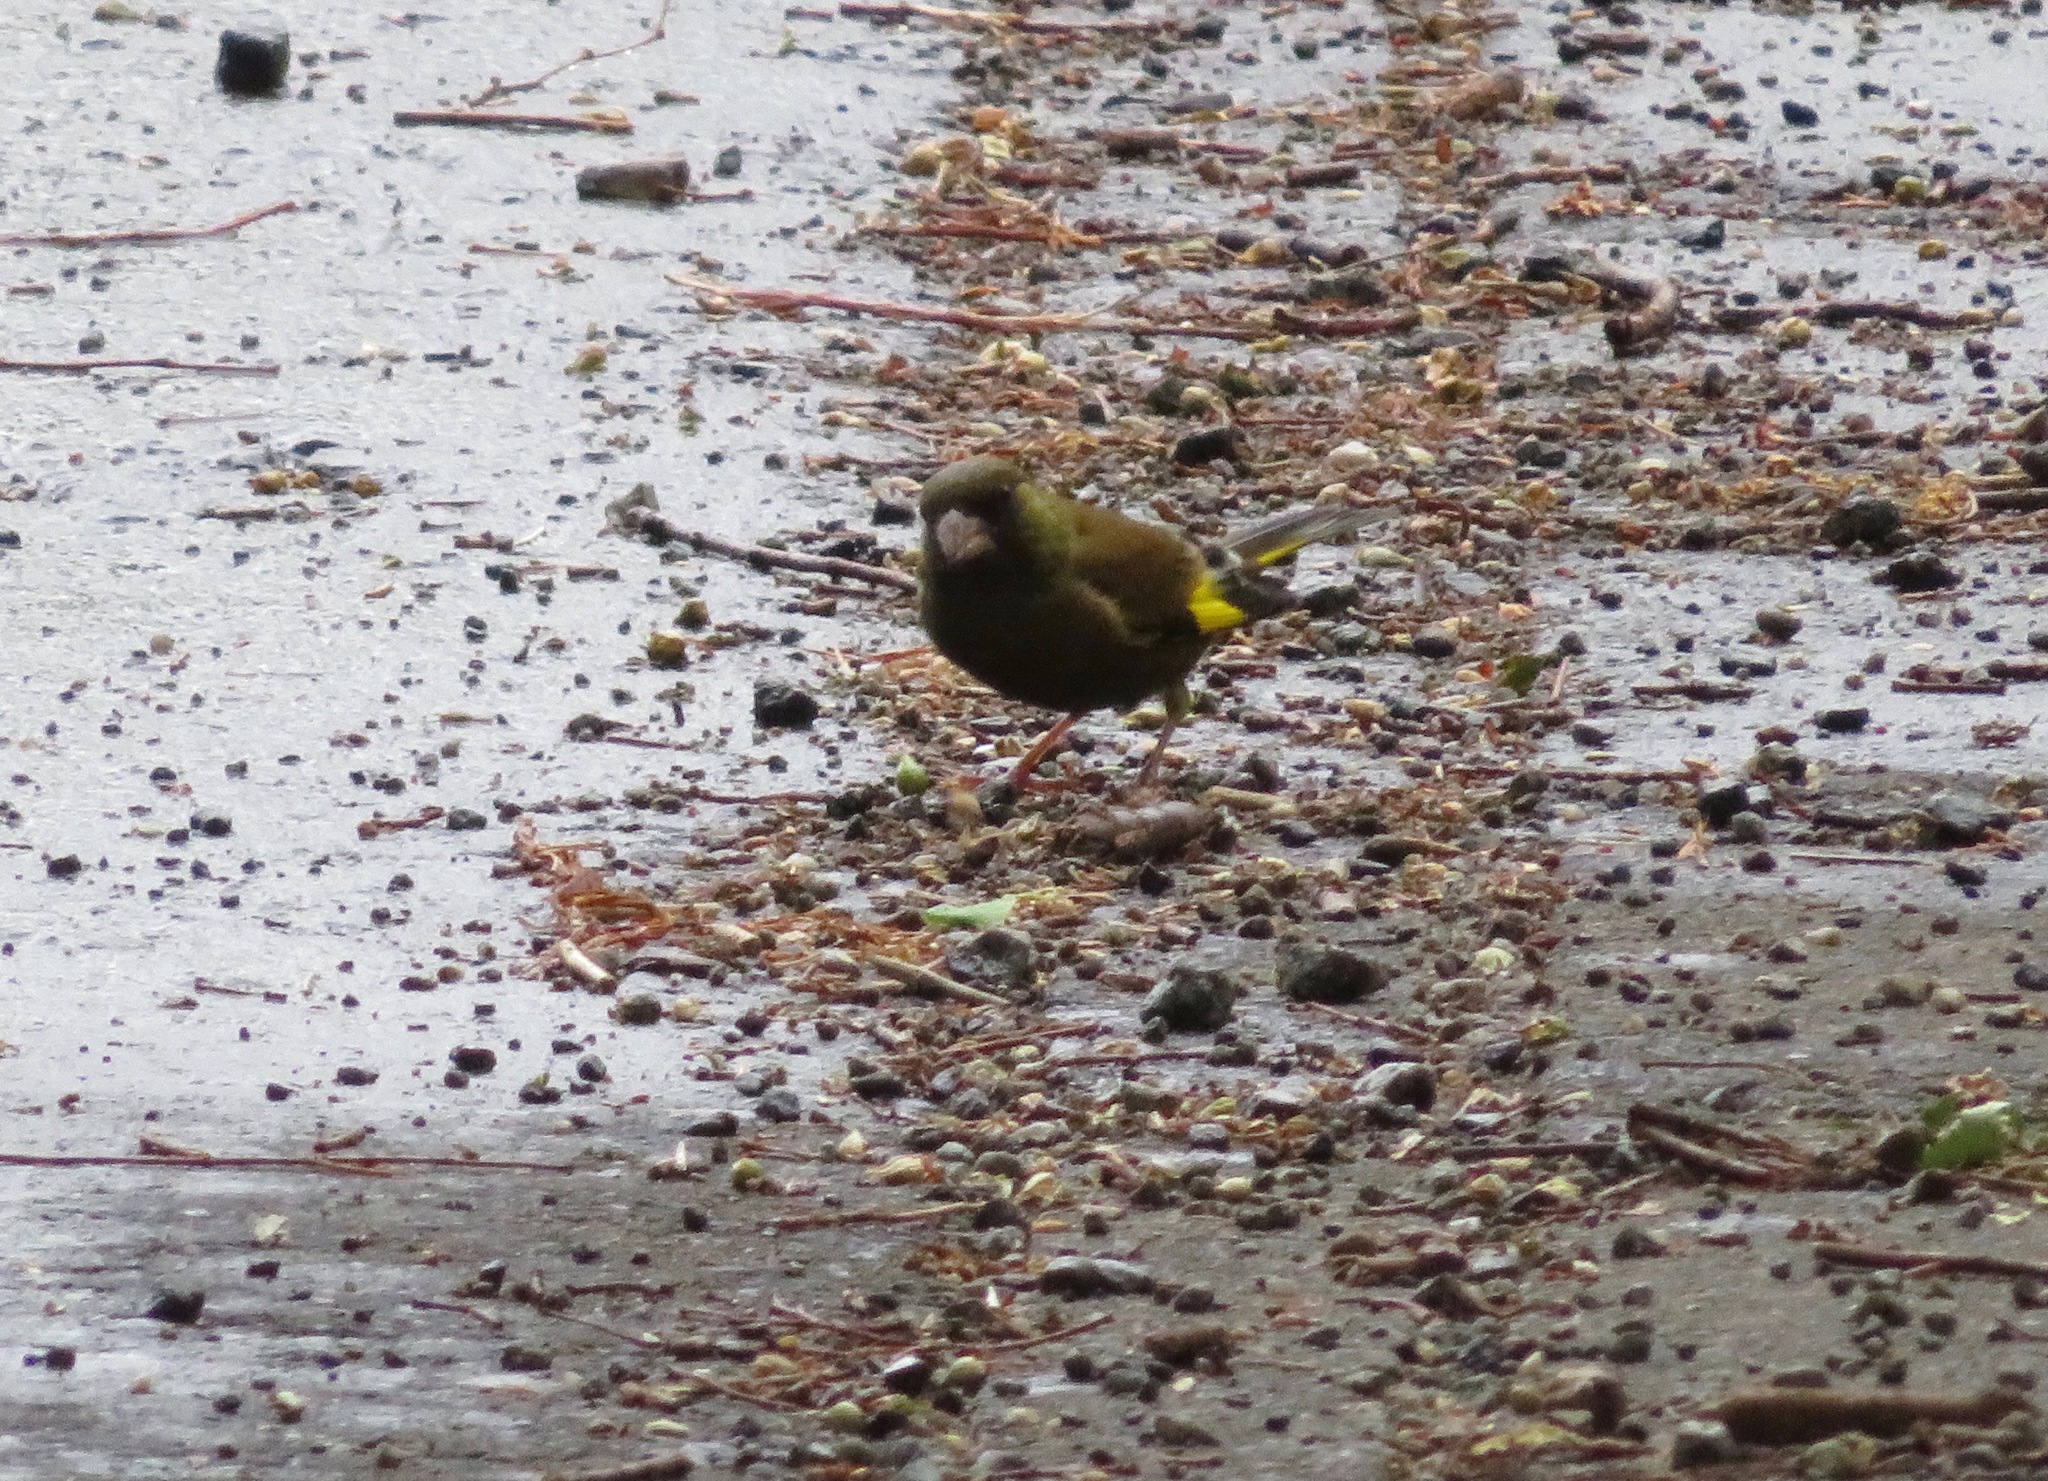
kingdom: Plantae
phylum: Tracheophyta
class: Liliopsida
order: Poales
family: Poaceae
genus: Chloris
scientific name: Chloris sinica
